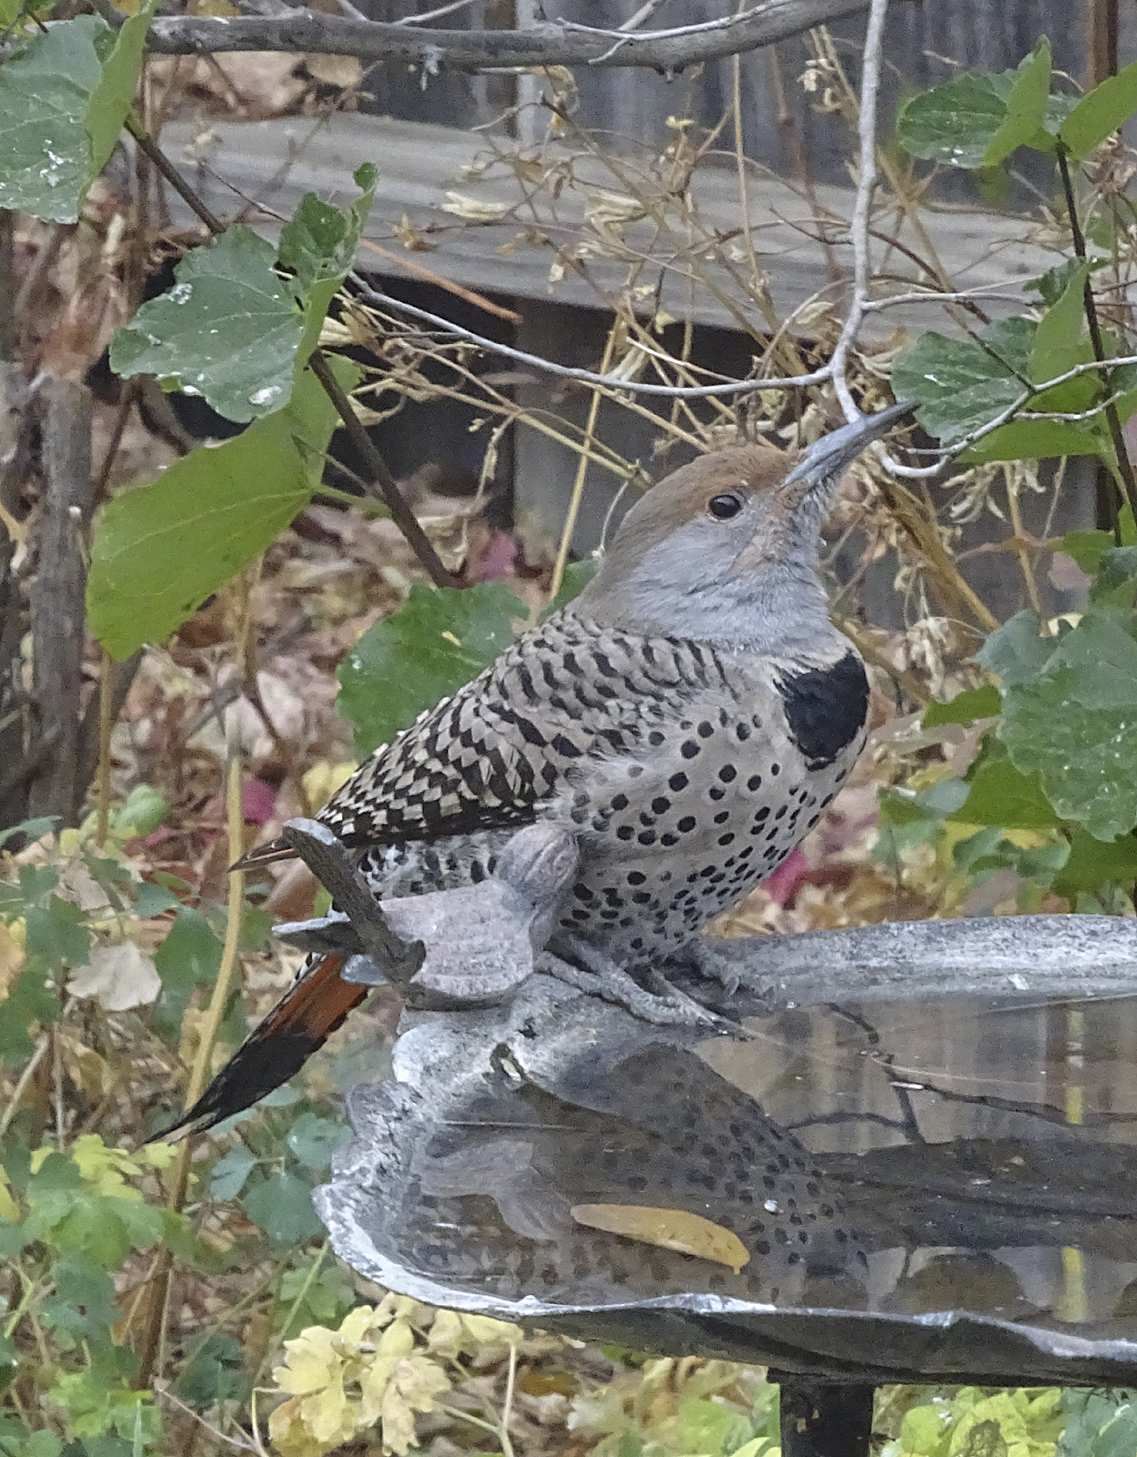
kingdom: Animalia
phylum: Chordata
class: Aves
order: Piciformes
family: Picidae
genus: Colaptes
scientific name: Colaptes auratus
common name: Northern flicker
